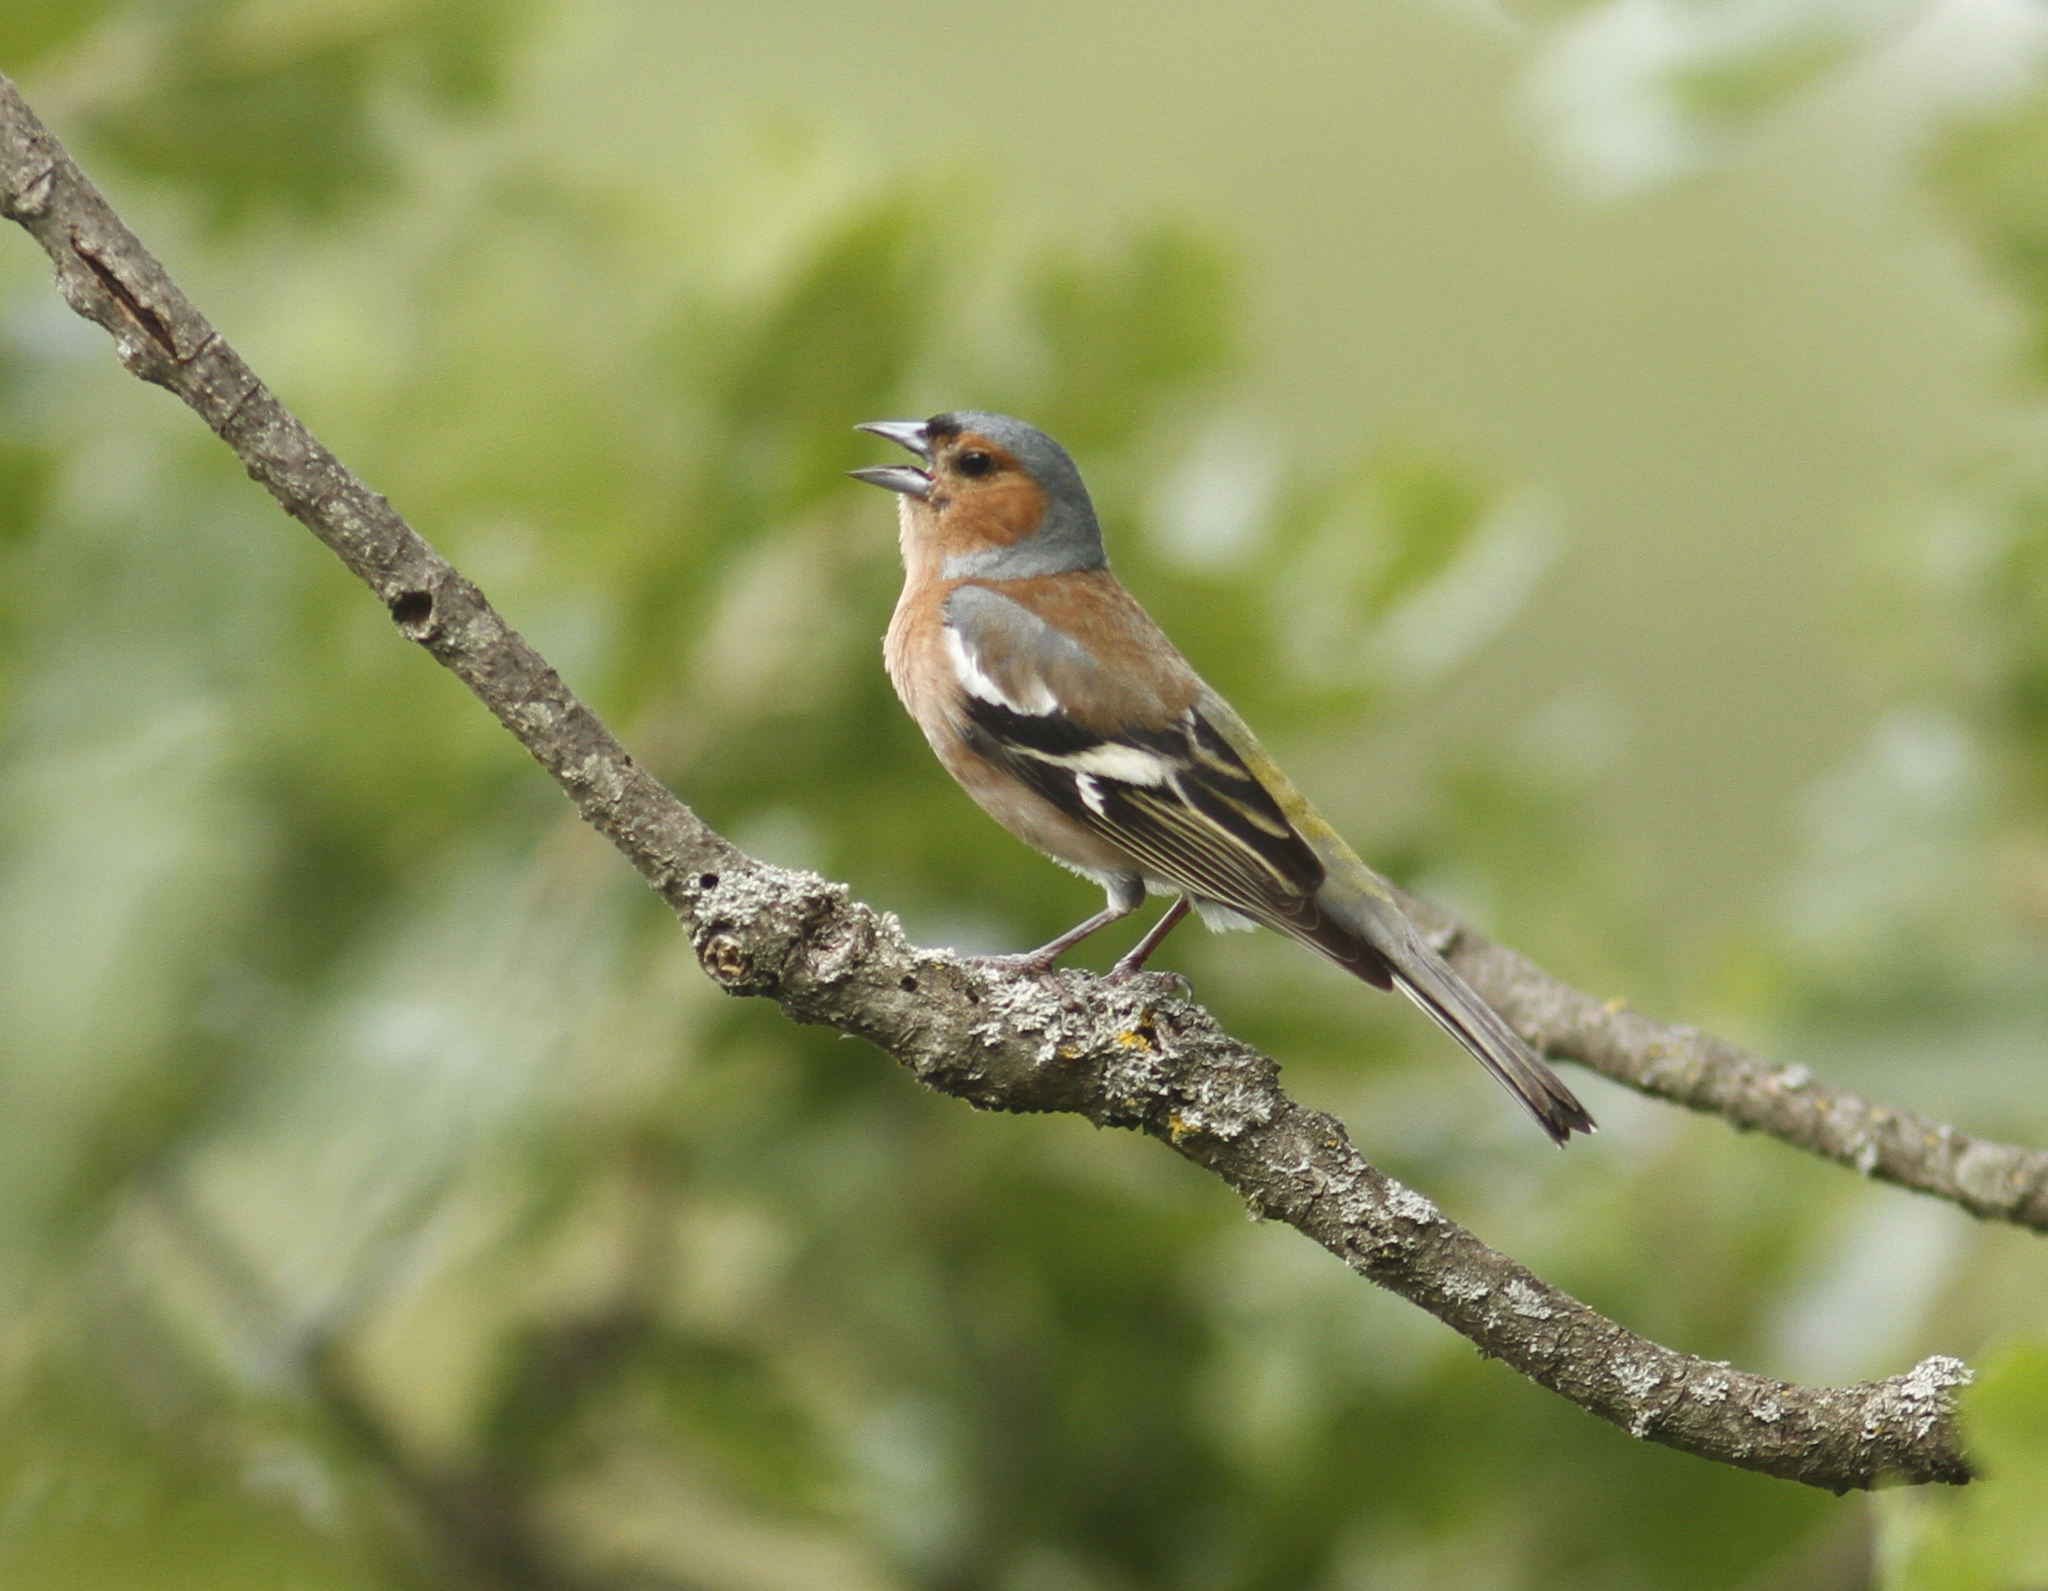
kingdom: Animalia
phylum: Chordata
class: Aves
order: Passeriformes
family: Fringillidae
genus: Fringilla
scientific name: Fringilla coelebs
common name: Common chaffinch
